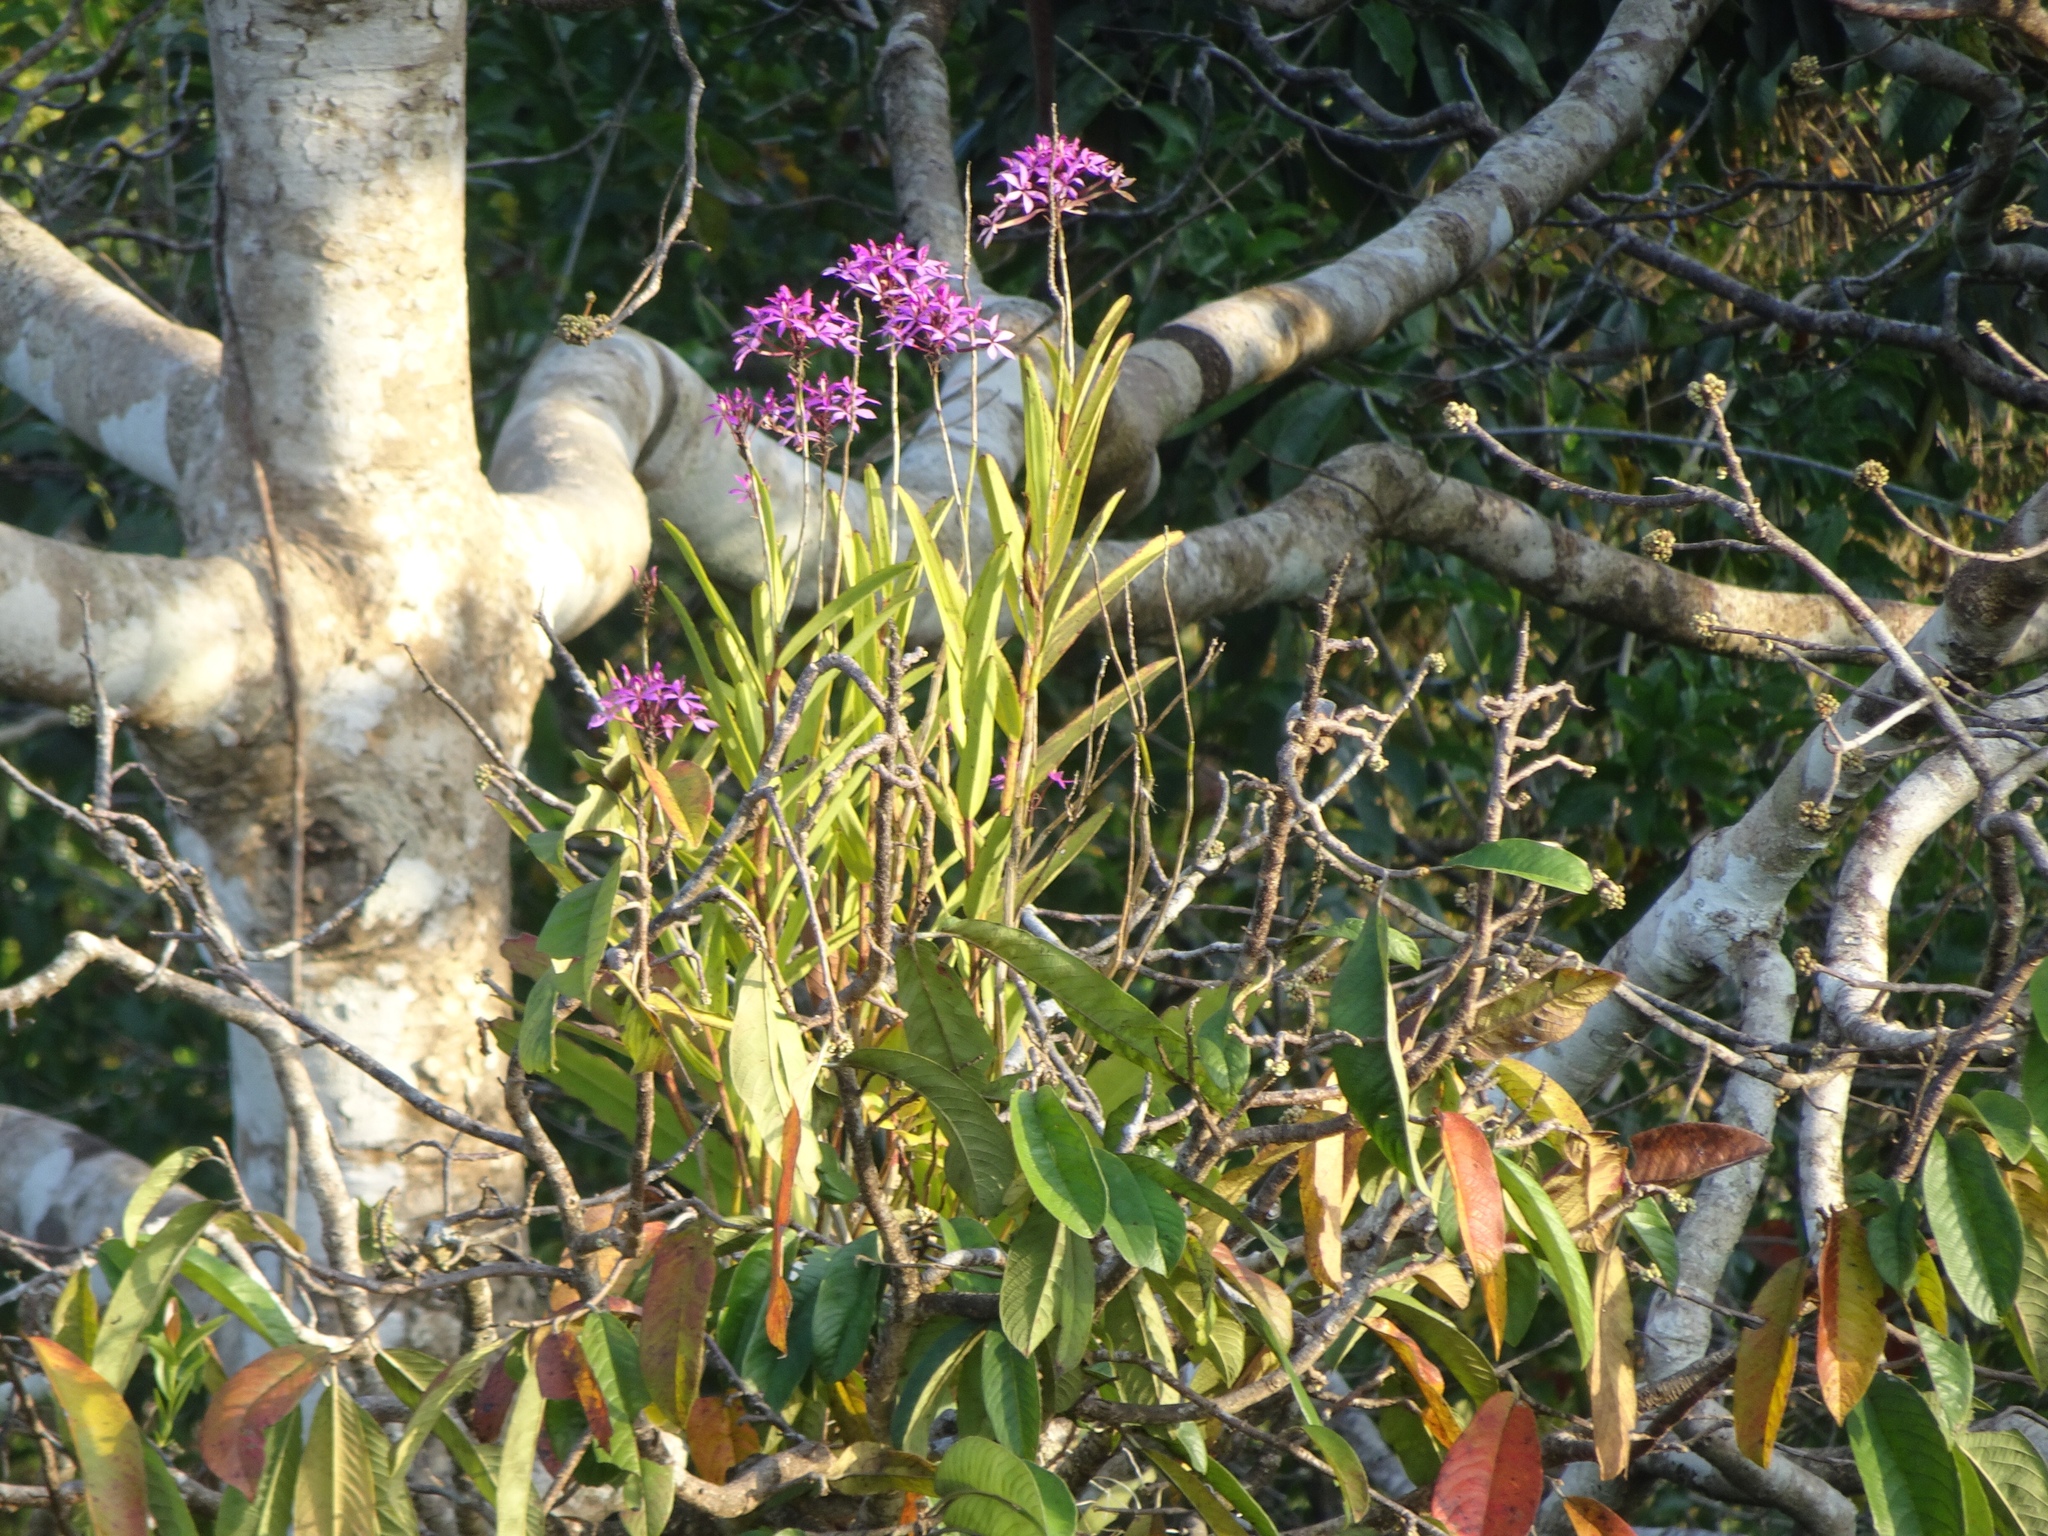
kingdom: Plantae
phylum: Tracheophyta
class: Liliopsida
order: Asparagales
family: Orchidaceae
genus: Epidendrum
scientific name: Epidendrum flexuosum
